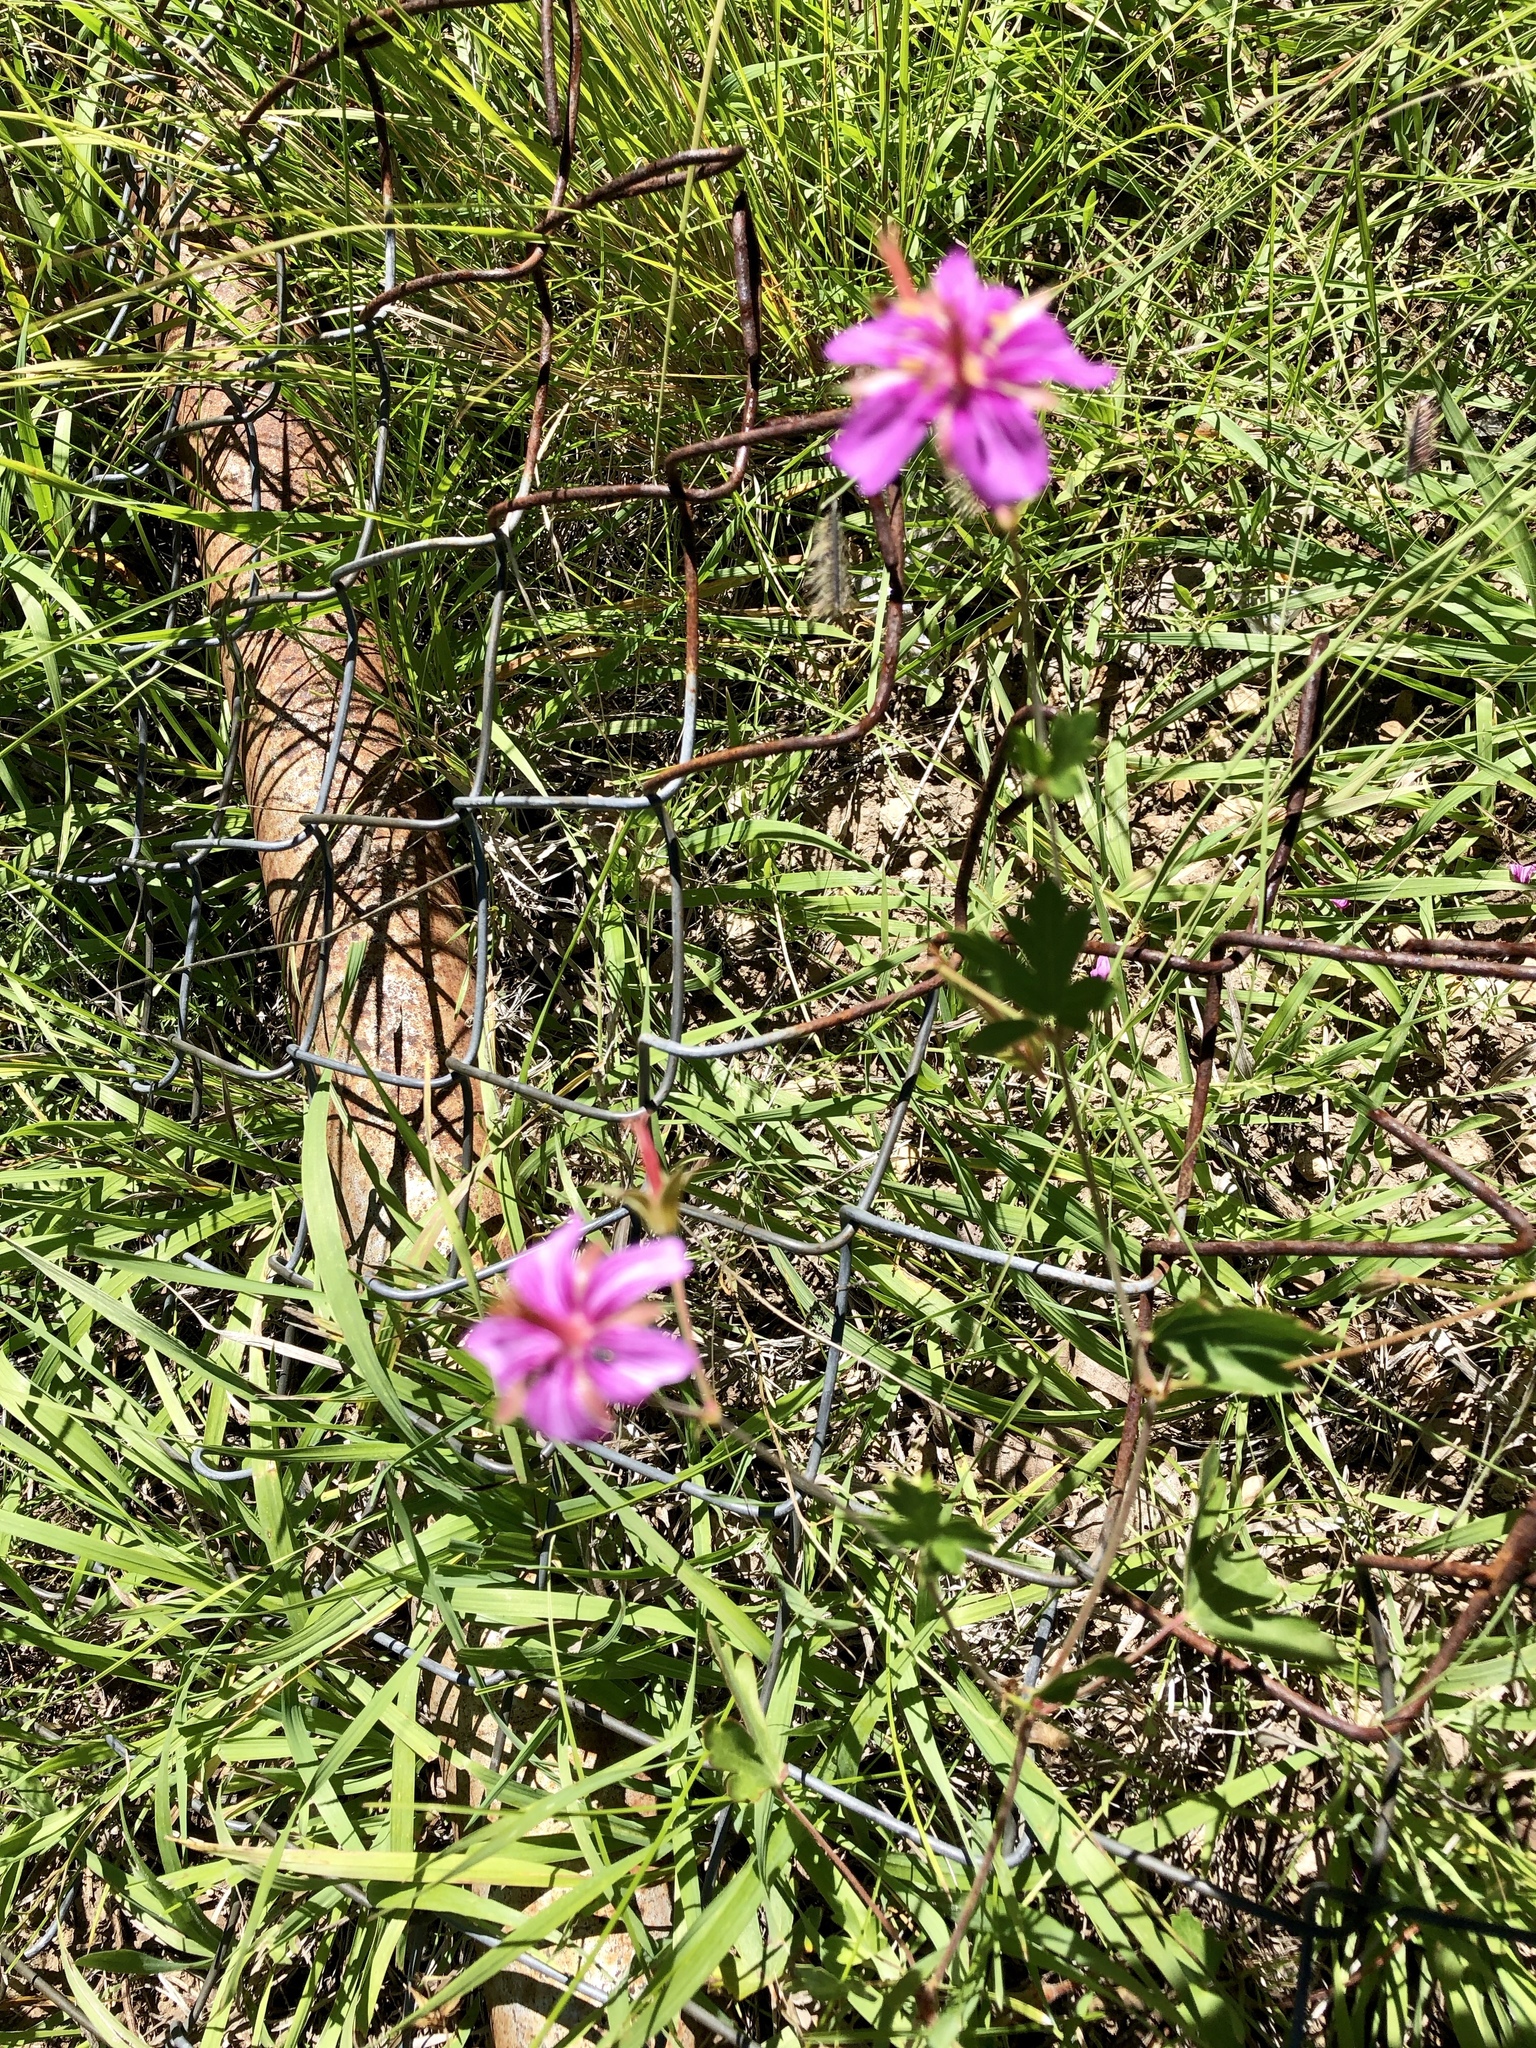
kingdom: Plantae
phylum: Tracheophyta
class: Magnoliopsida
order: Geraniales
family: Geraniaceae
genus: Geranium
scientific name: Geranium caespitosum
